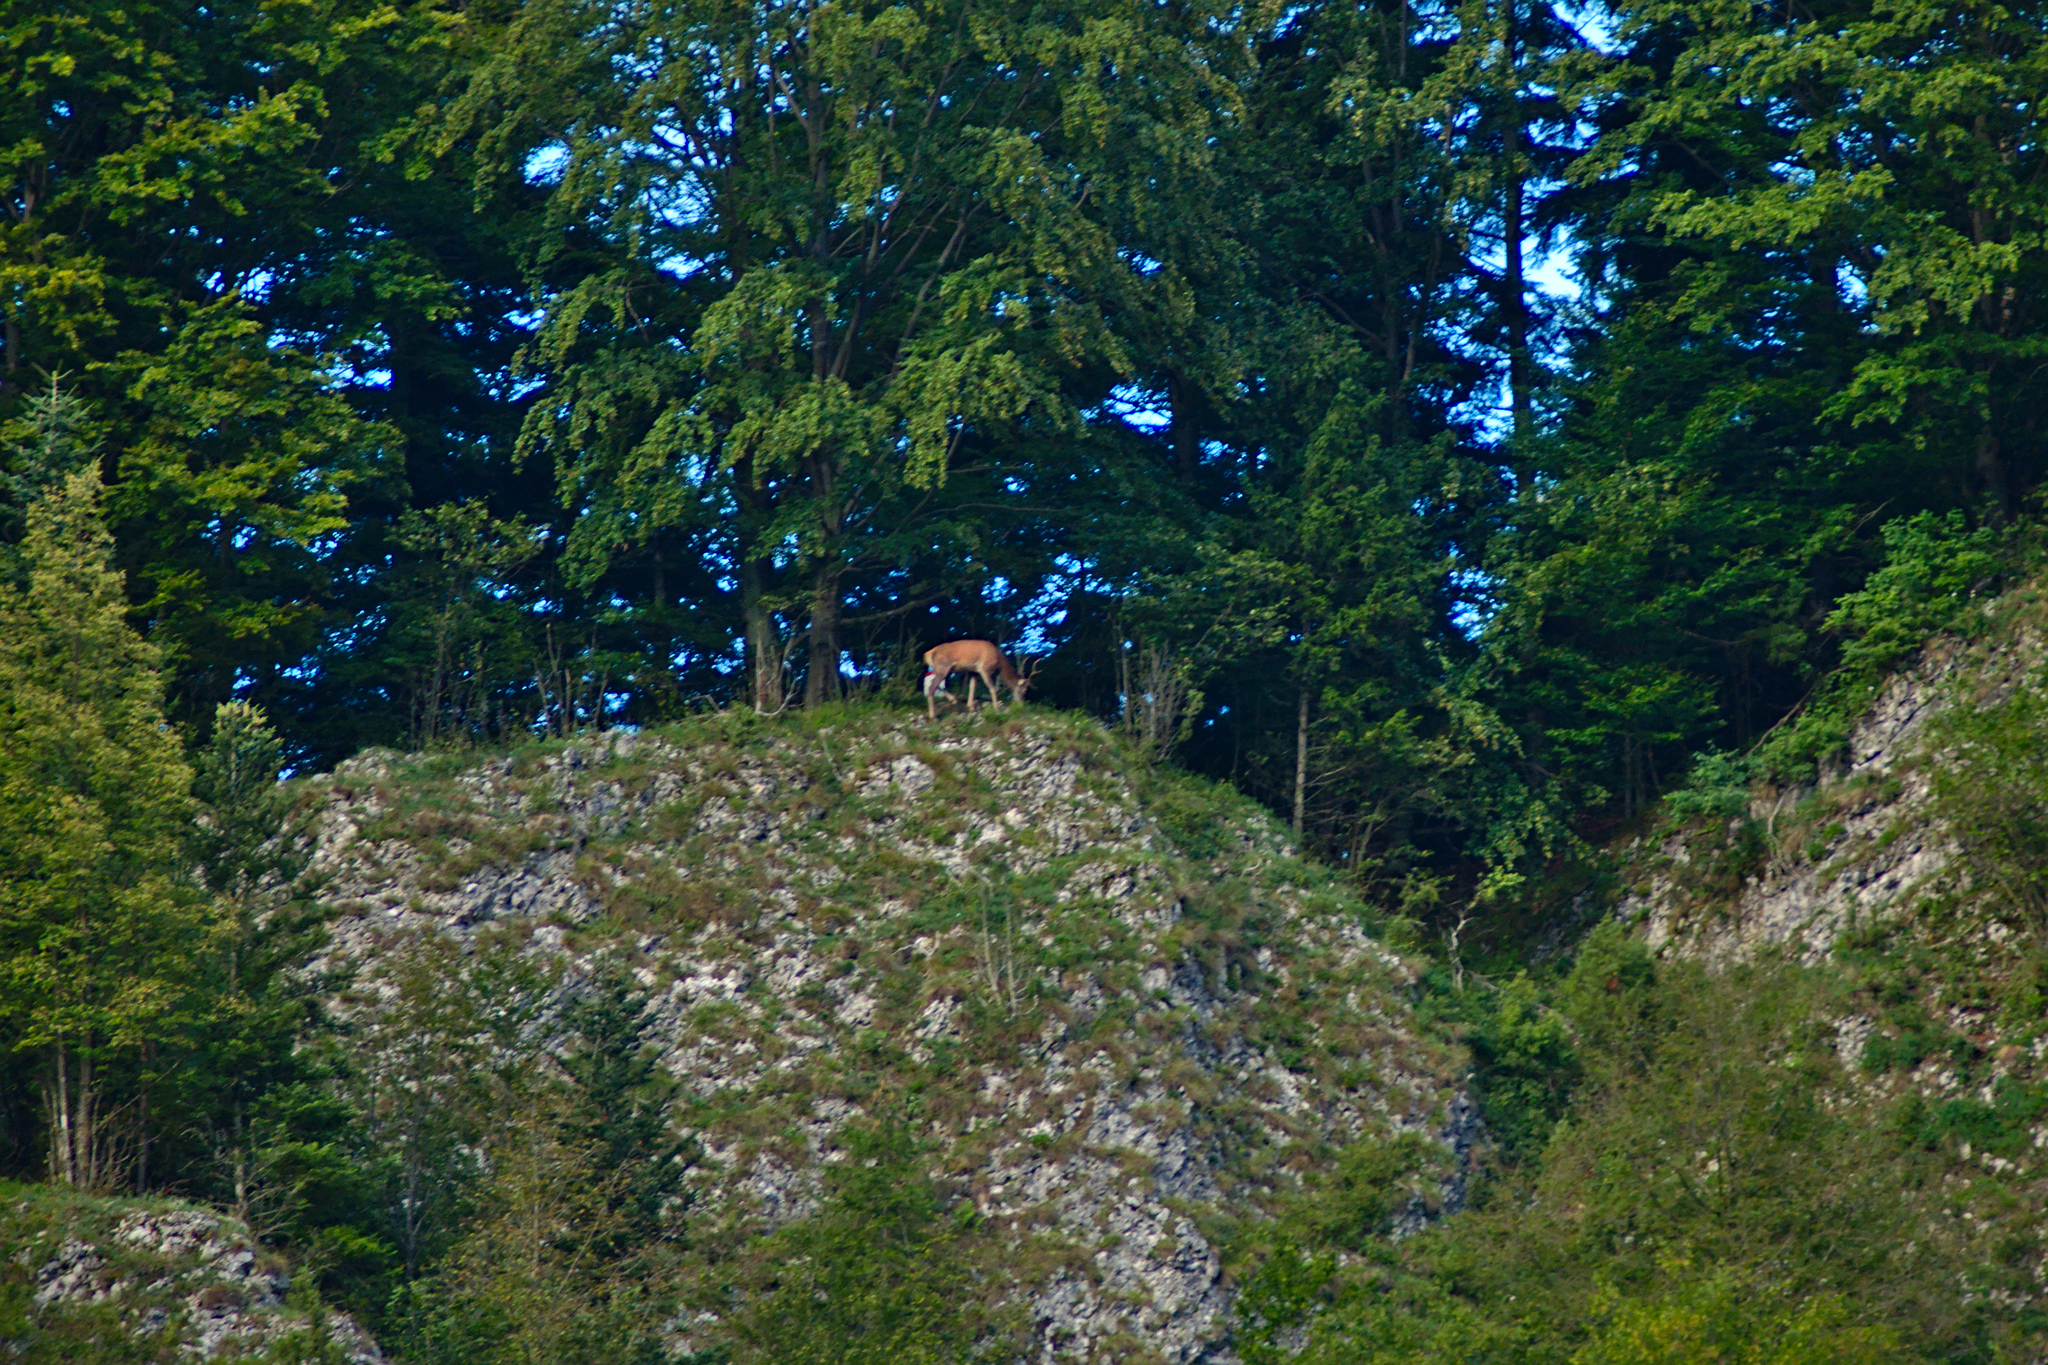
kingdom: Animalia
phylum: Chordata
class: Mammalia
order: Artiodactyla
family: Cervidae
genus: Cervus
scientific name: Cervus elaphus
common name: Red deer
